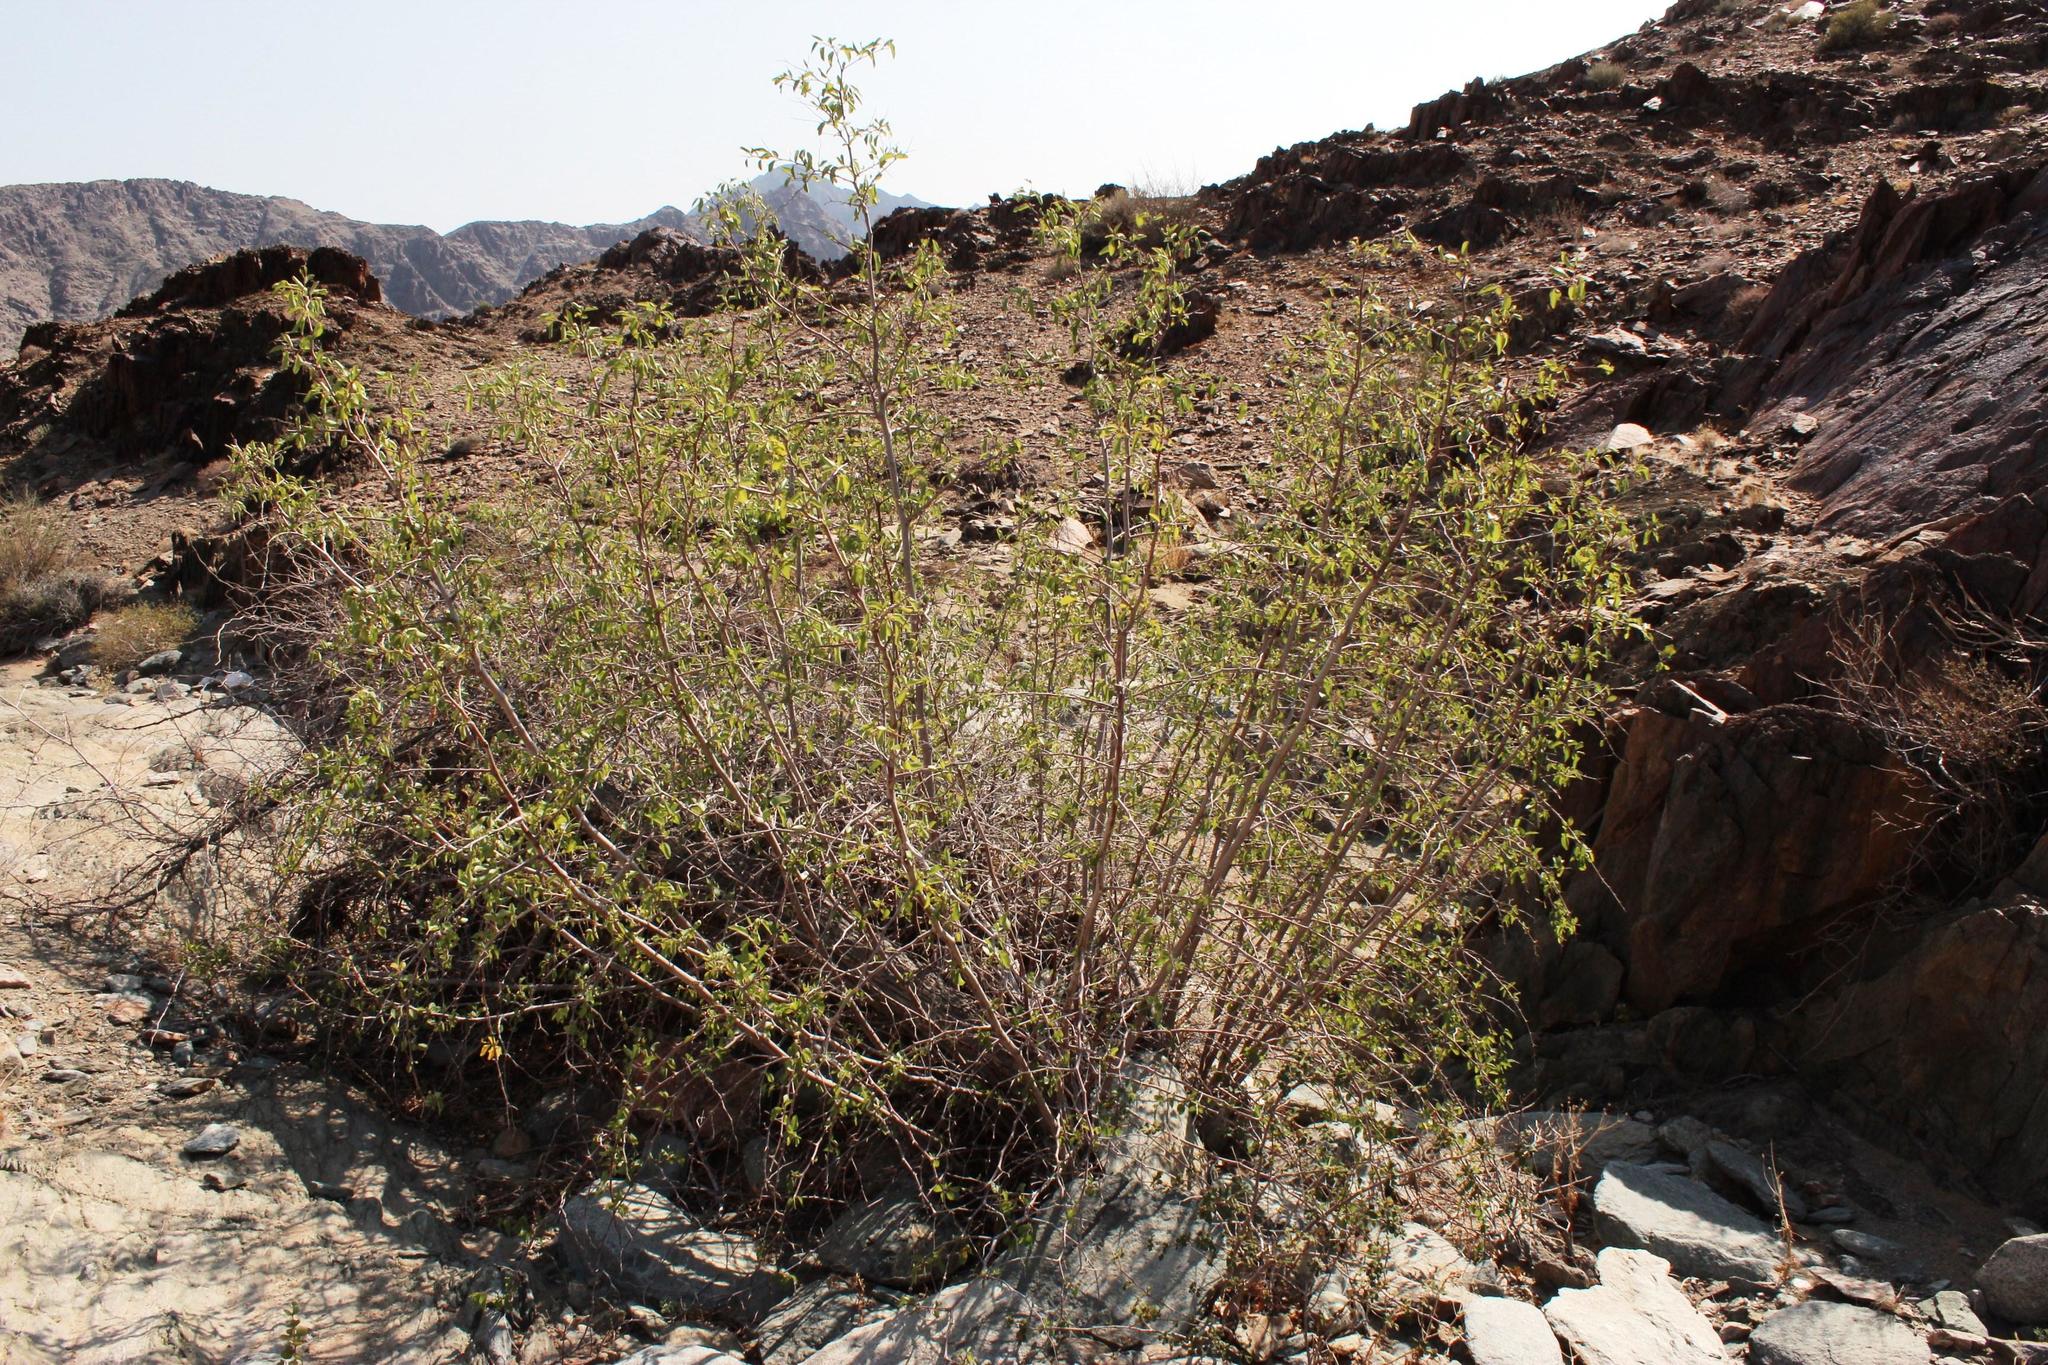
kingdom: Plantae
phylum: Tracheophyta
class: Magnoliopsida
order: Rosales
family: Rhamnaceae
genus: Ziziphus
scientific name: Ziziphus mucronata
